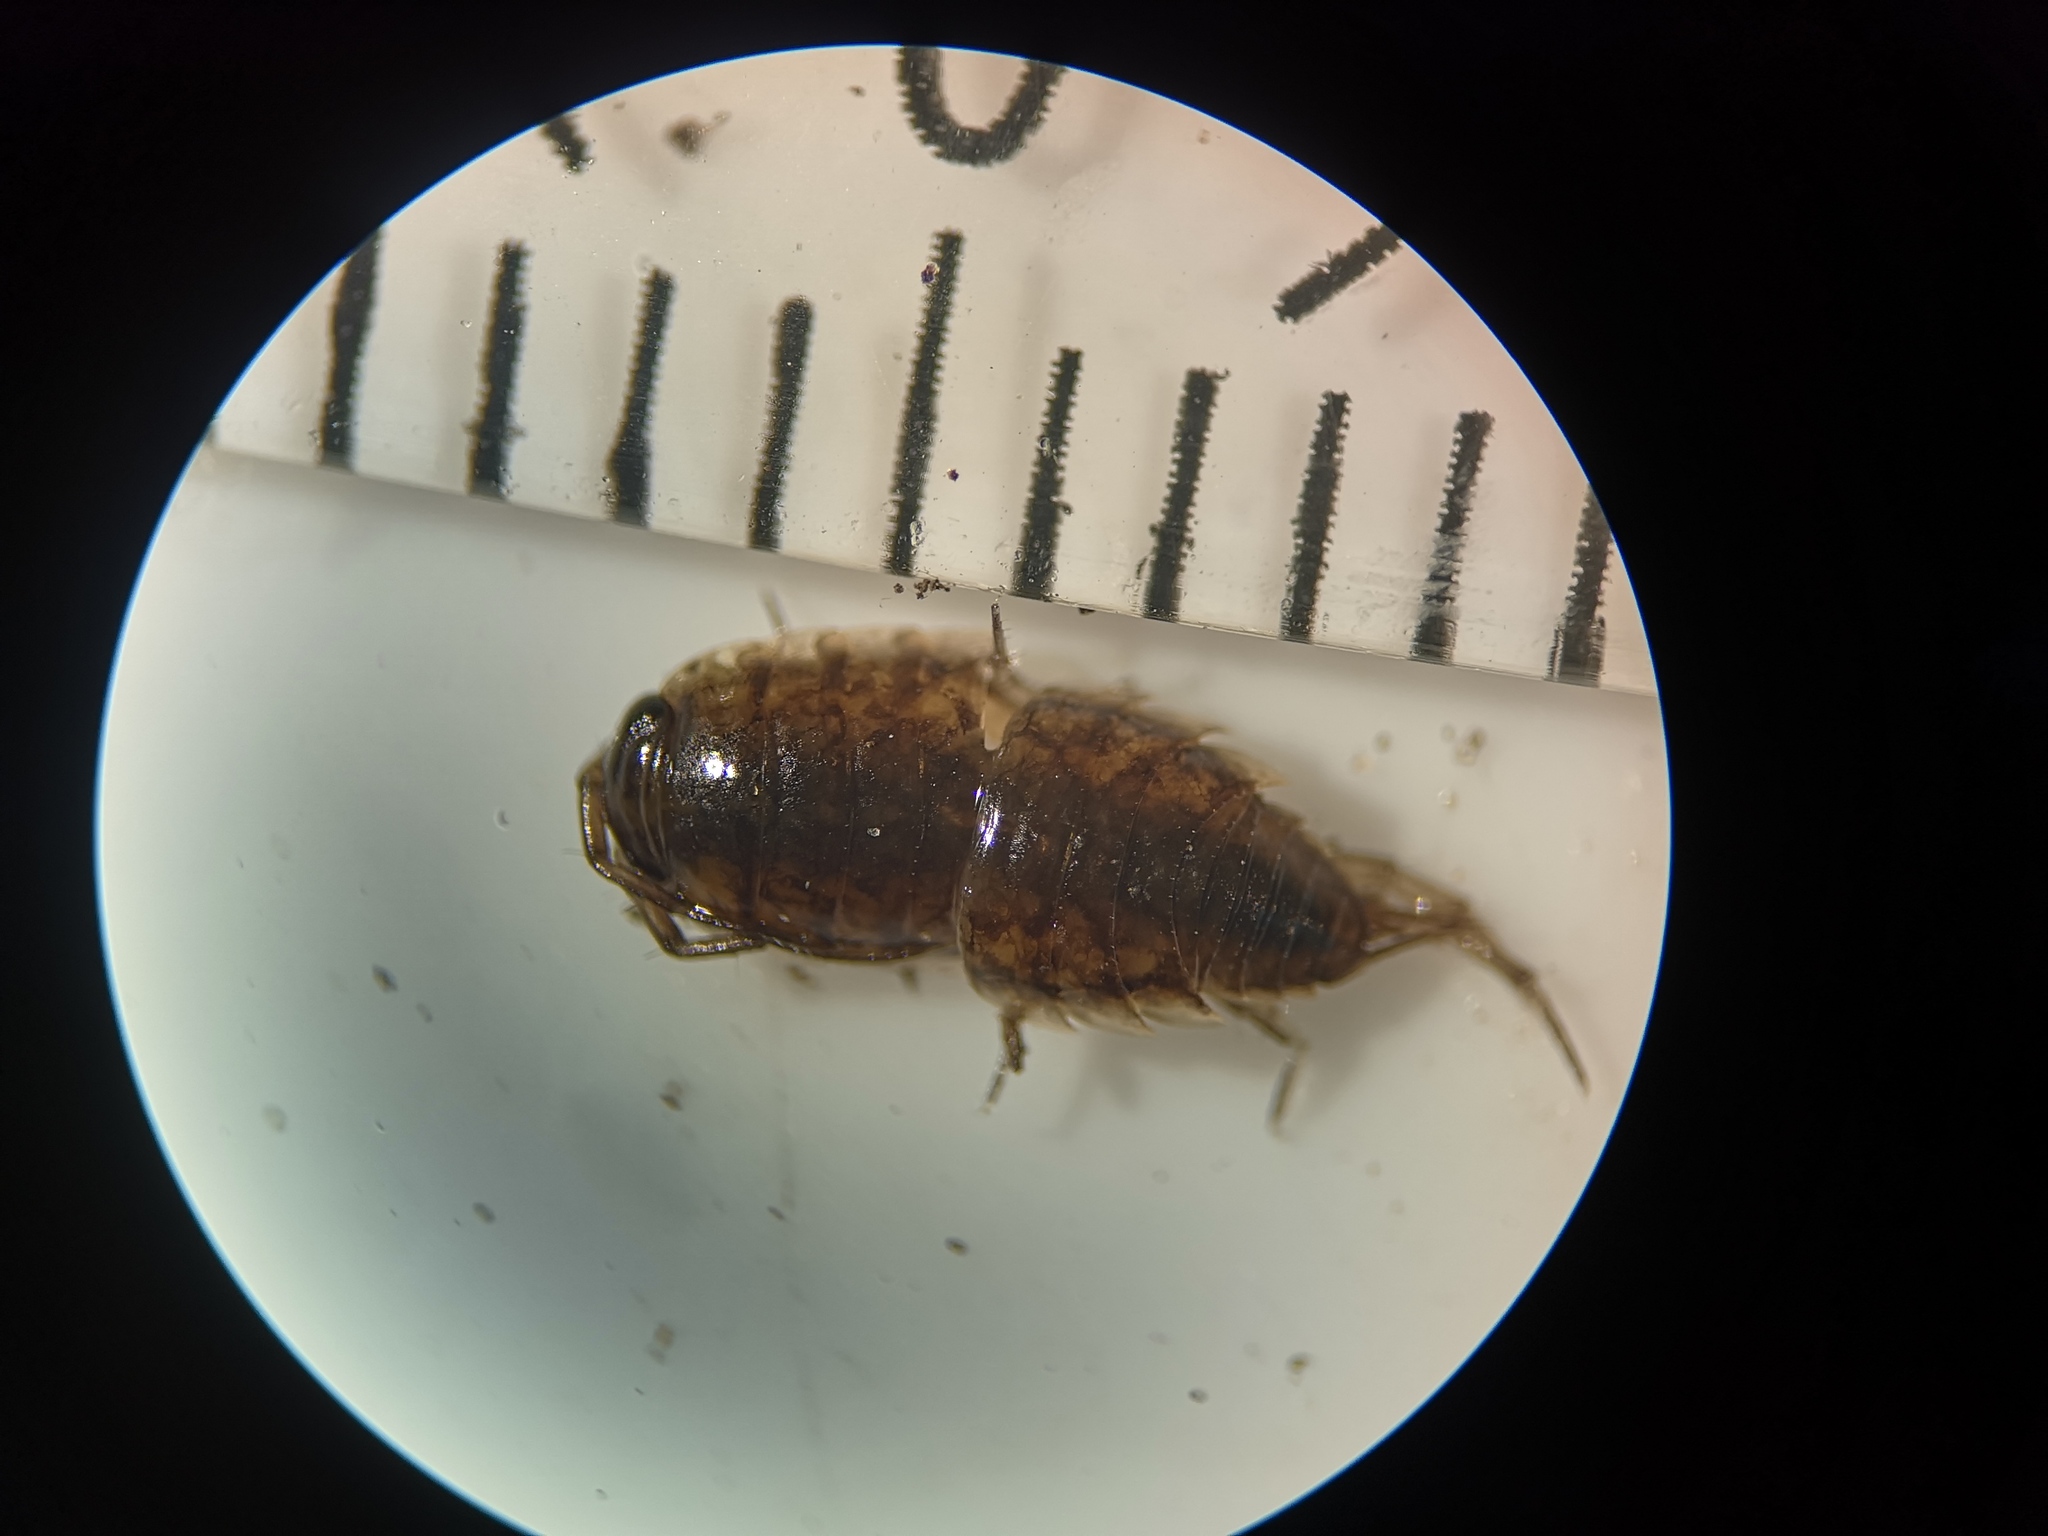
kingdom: Animalia
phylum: Arthropoda
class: Malacostraca
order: Isopoda
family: Ligiidae
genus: Ligidium
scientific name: Ligidium hypnorum
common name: Moss slater
